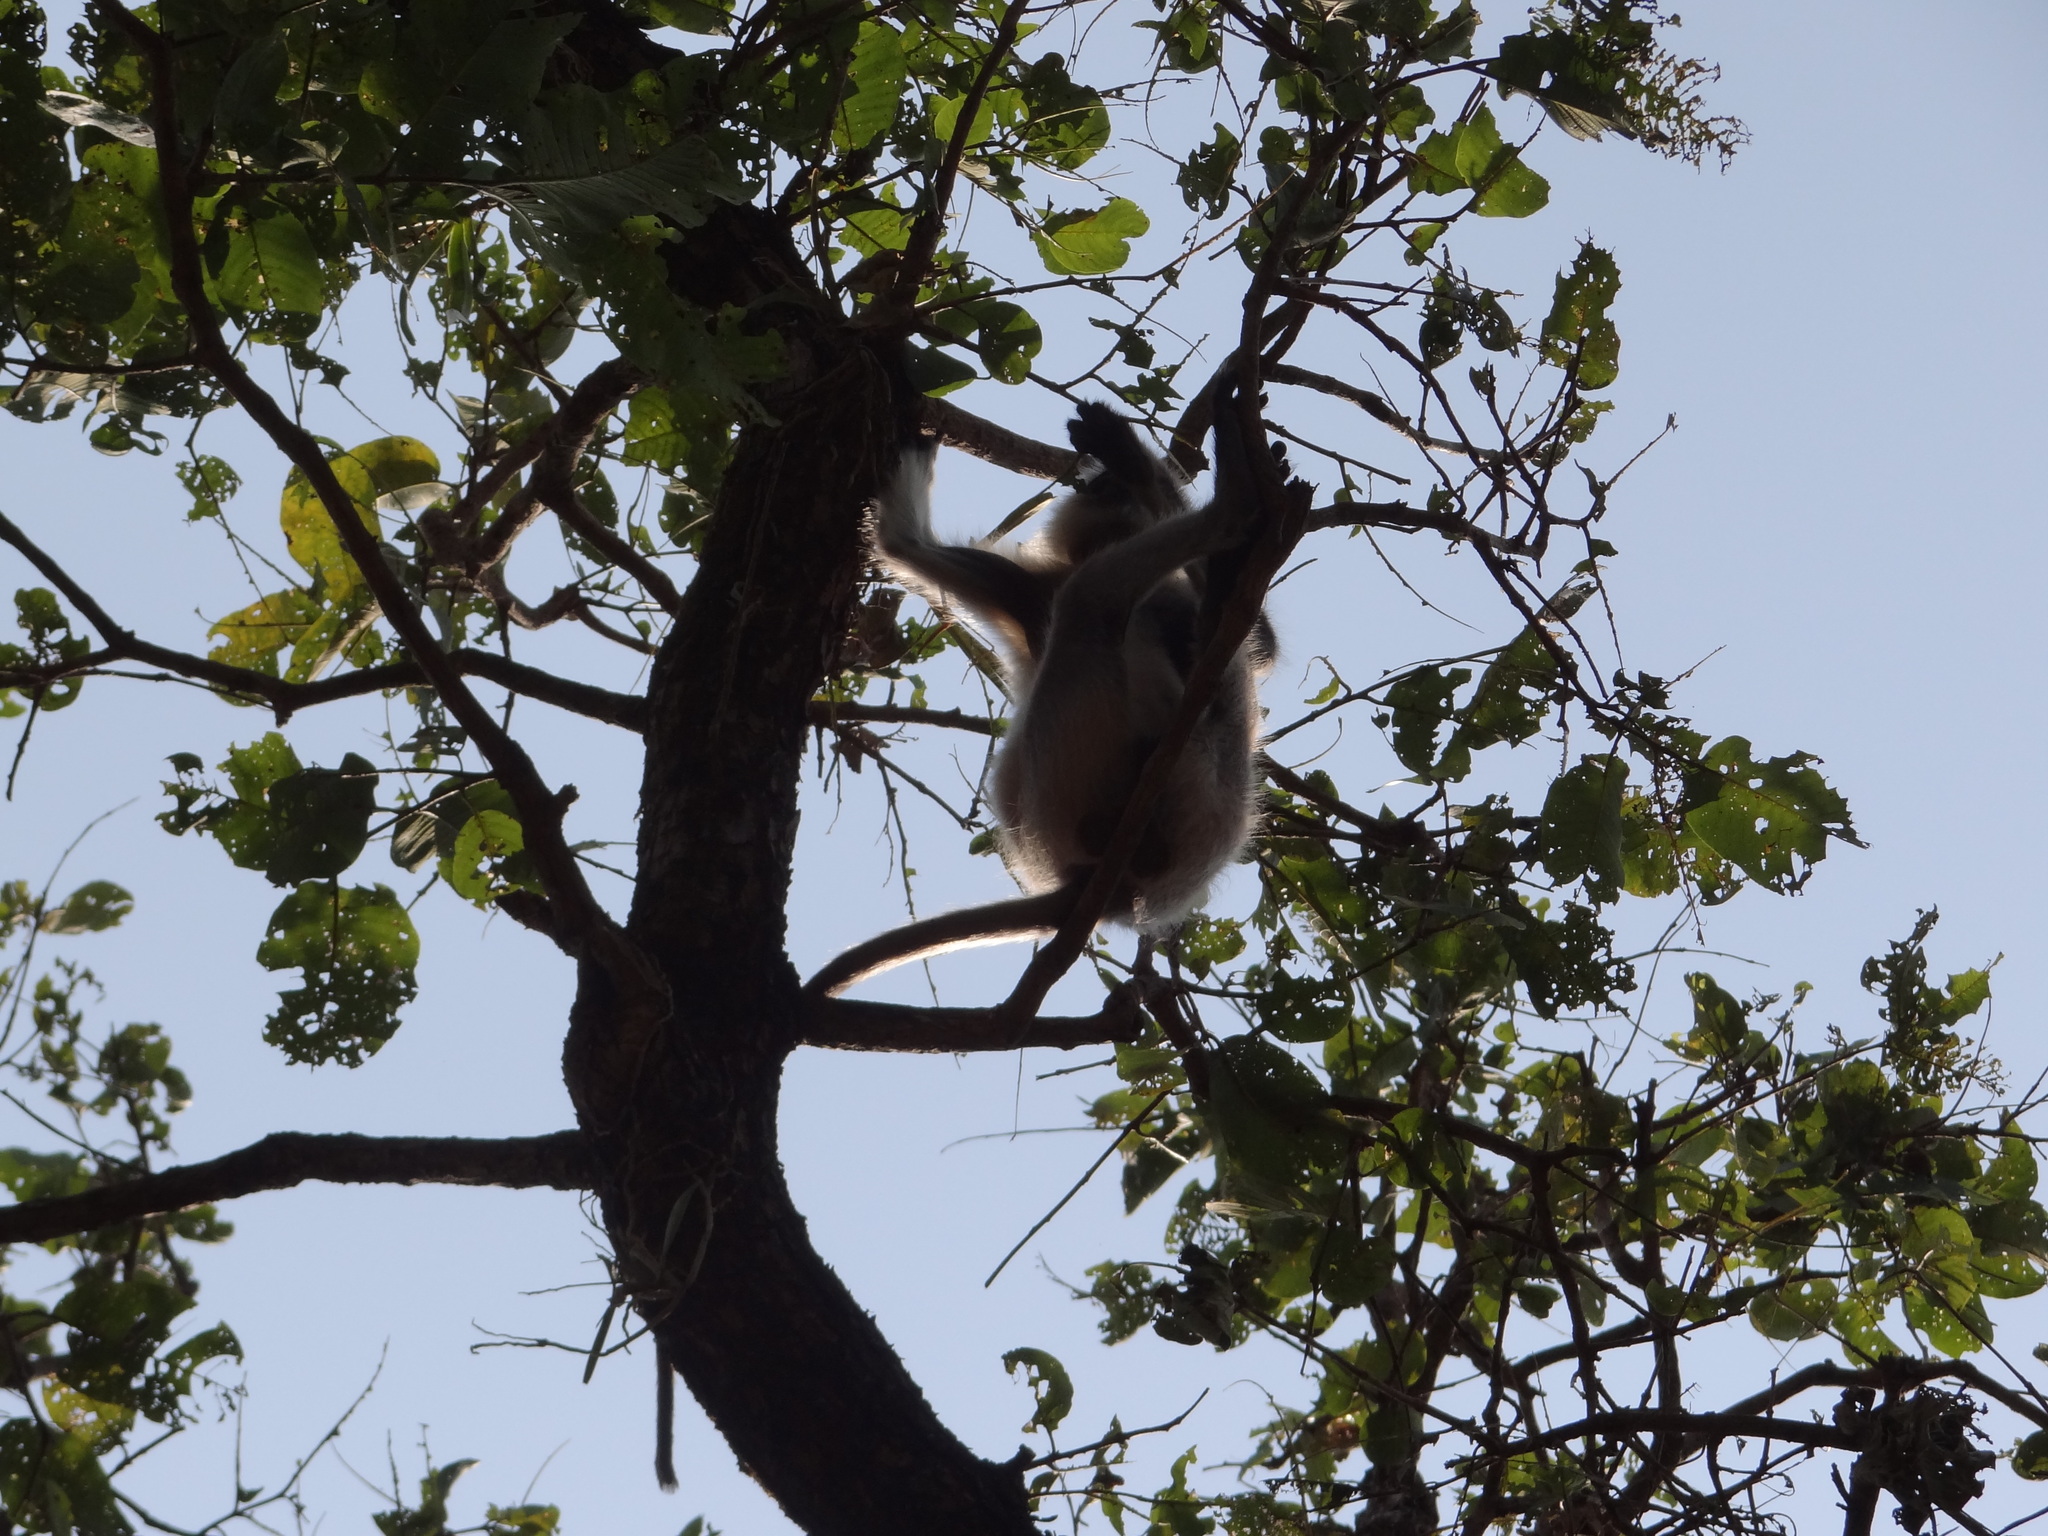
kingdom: Animalia
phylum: Chordata
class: Mammalia
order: Primates
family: Cercopithecidae
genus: Semnopithecus
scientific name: Semnopithecus entellus
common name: Northern plains gray langur
